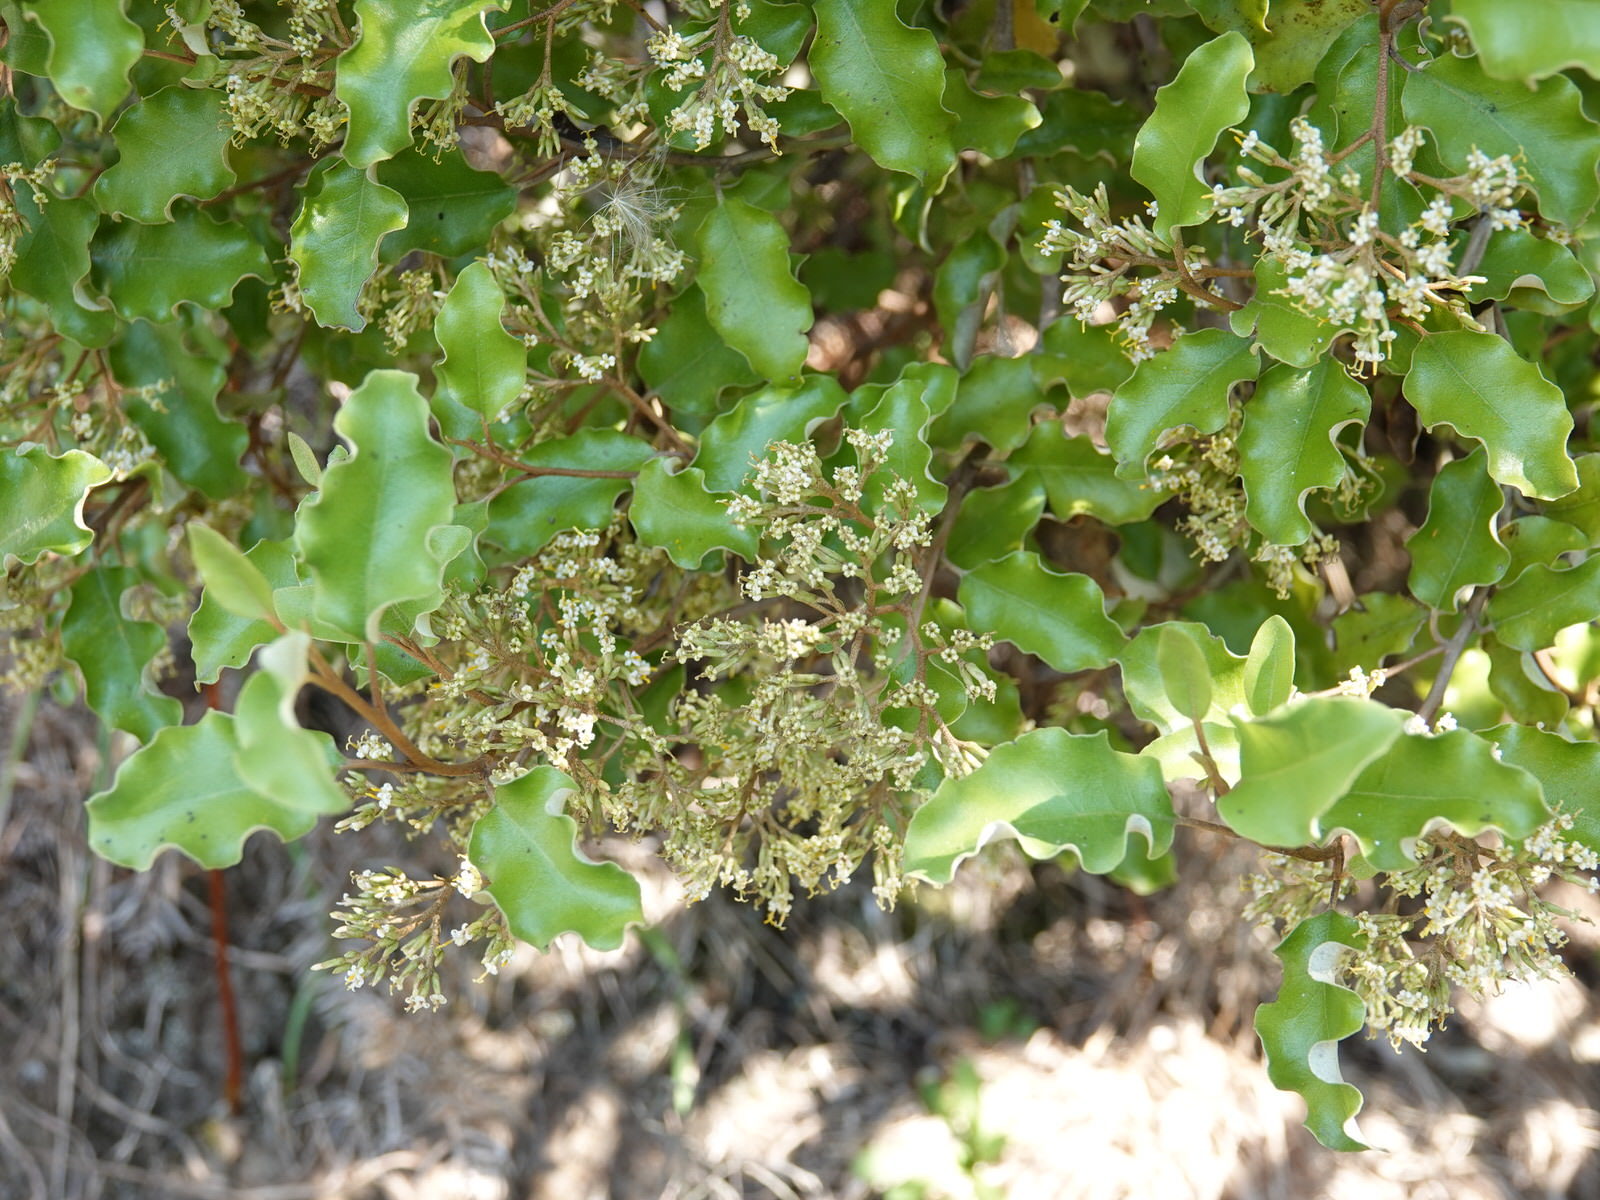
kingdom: Plantae
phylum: Tracheophyta
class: Magnoliopsida
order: Asterales
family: Asteraceae
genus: Olearia
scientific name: Olearia paniculata
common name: Akiraho
